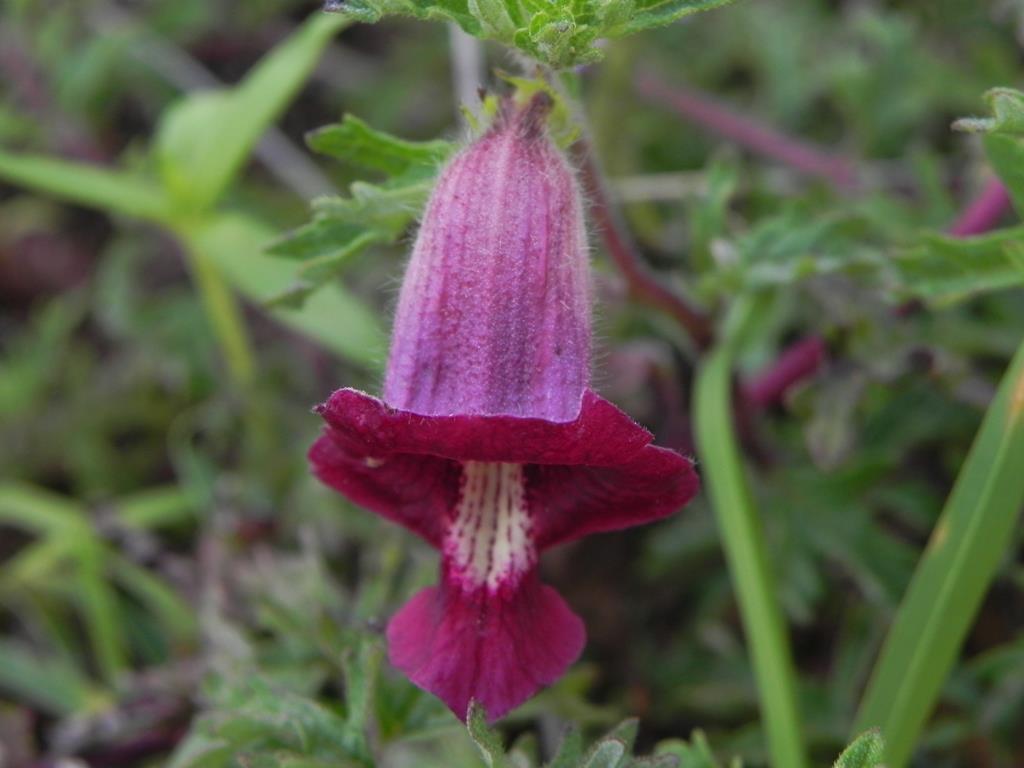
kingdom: Plantae
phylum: Tracheophyta
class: Magnoliopsida
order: Lamiales
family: Pedaliaceae
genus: Sesamum
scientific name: Sesamum prostratum
